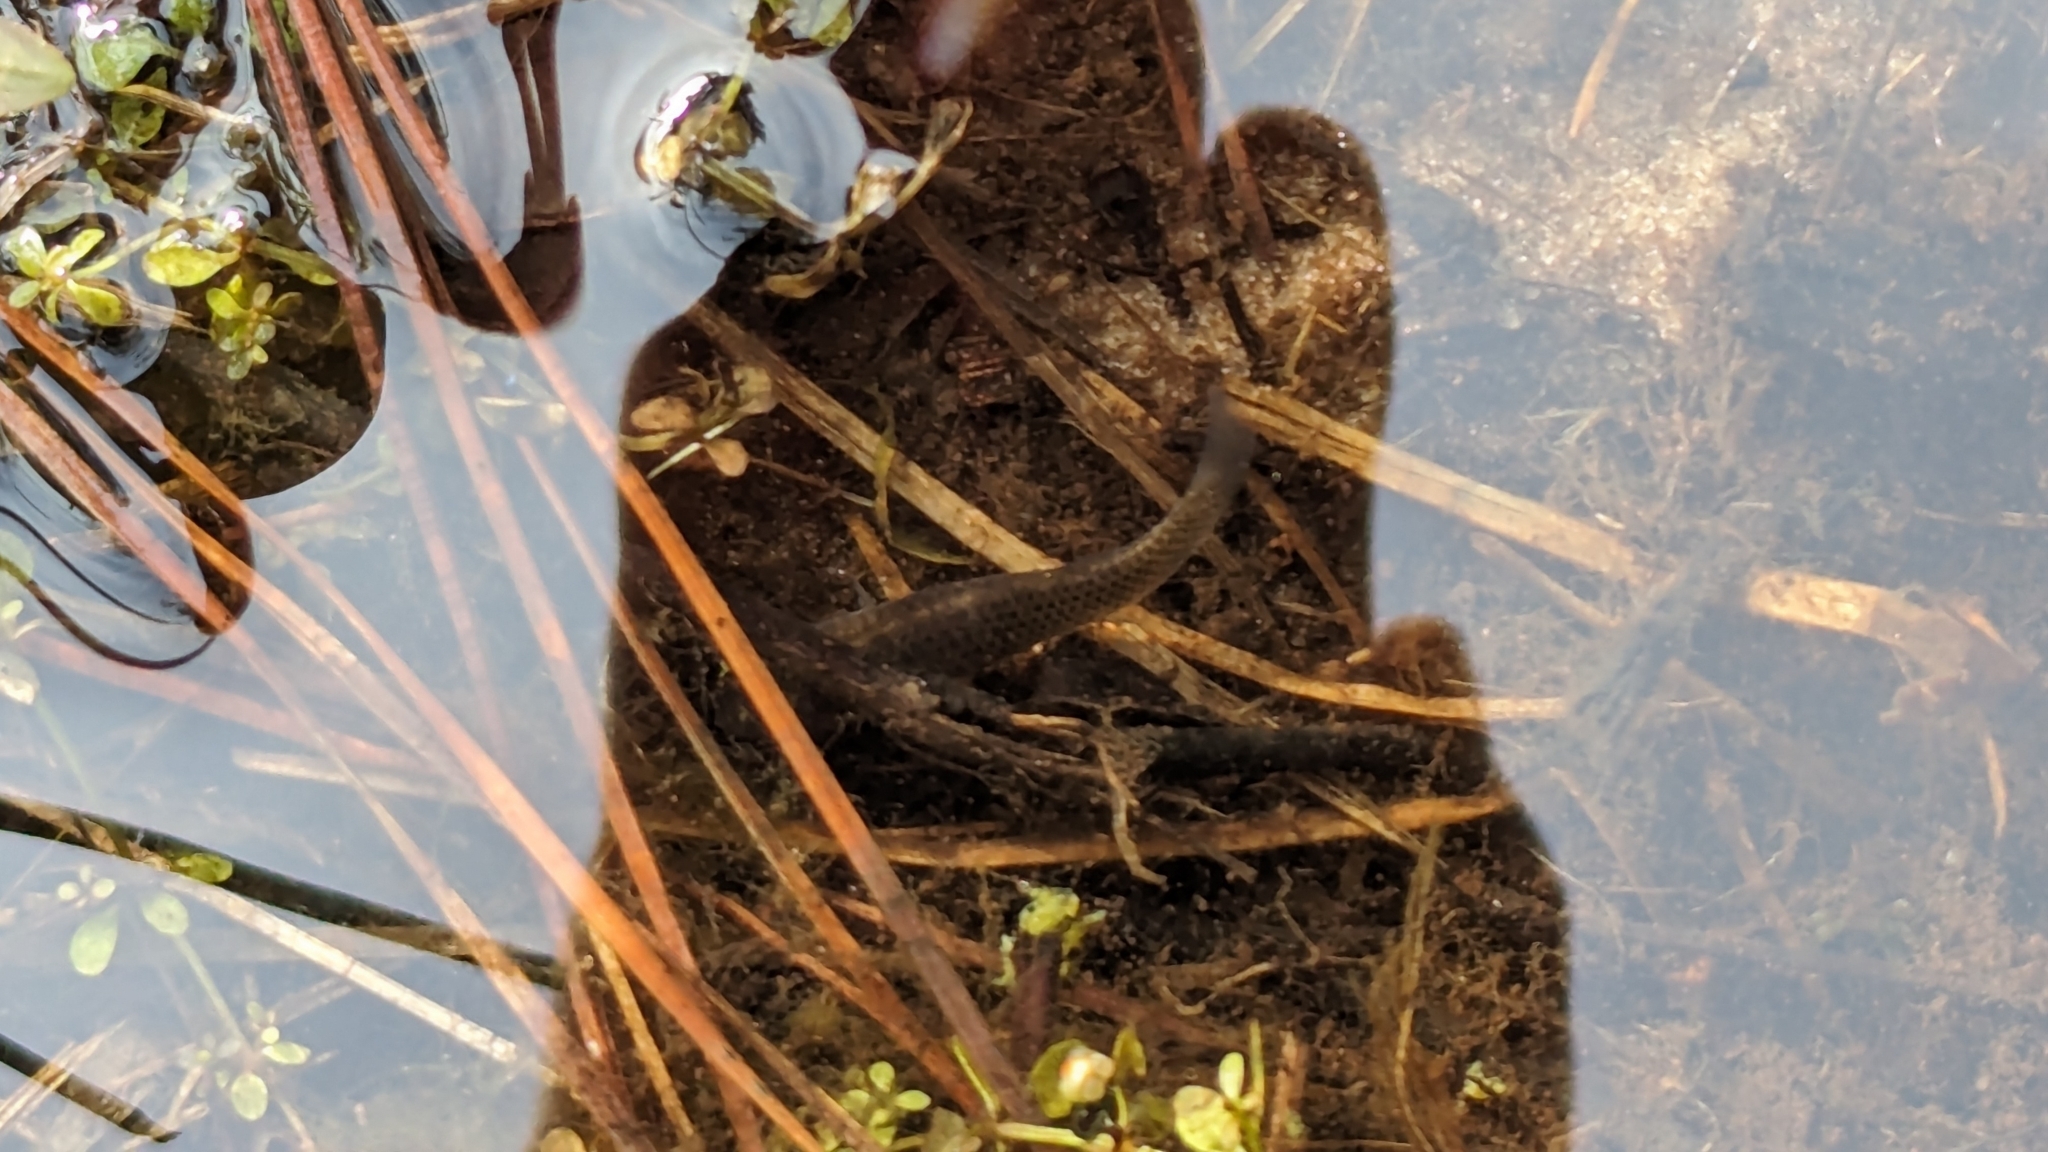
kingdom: Animalia
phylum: Chordata
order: Cyprinodontiformes
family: Poeciliidae
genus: Poecilia
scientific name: Poecilia latipinna
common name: Sailfin molly
